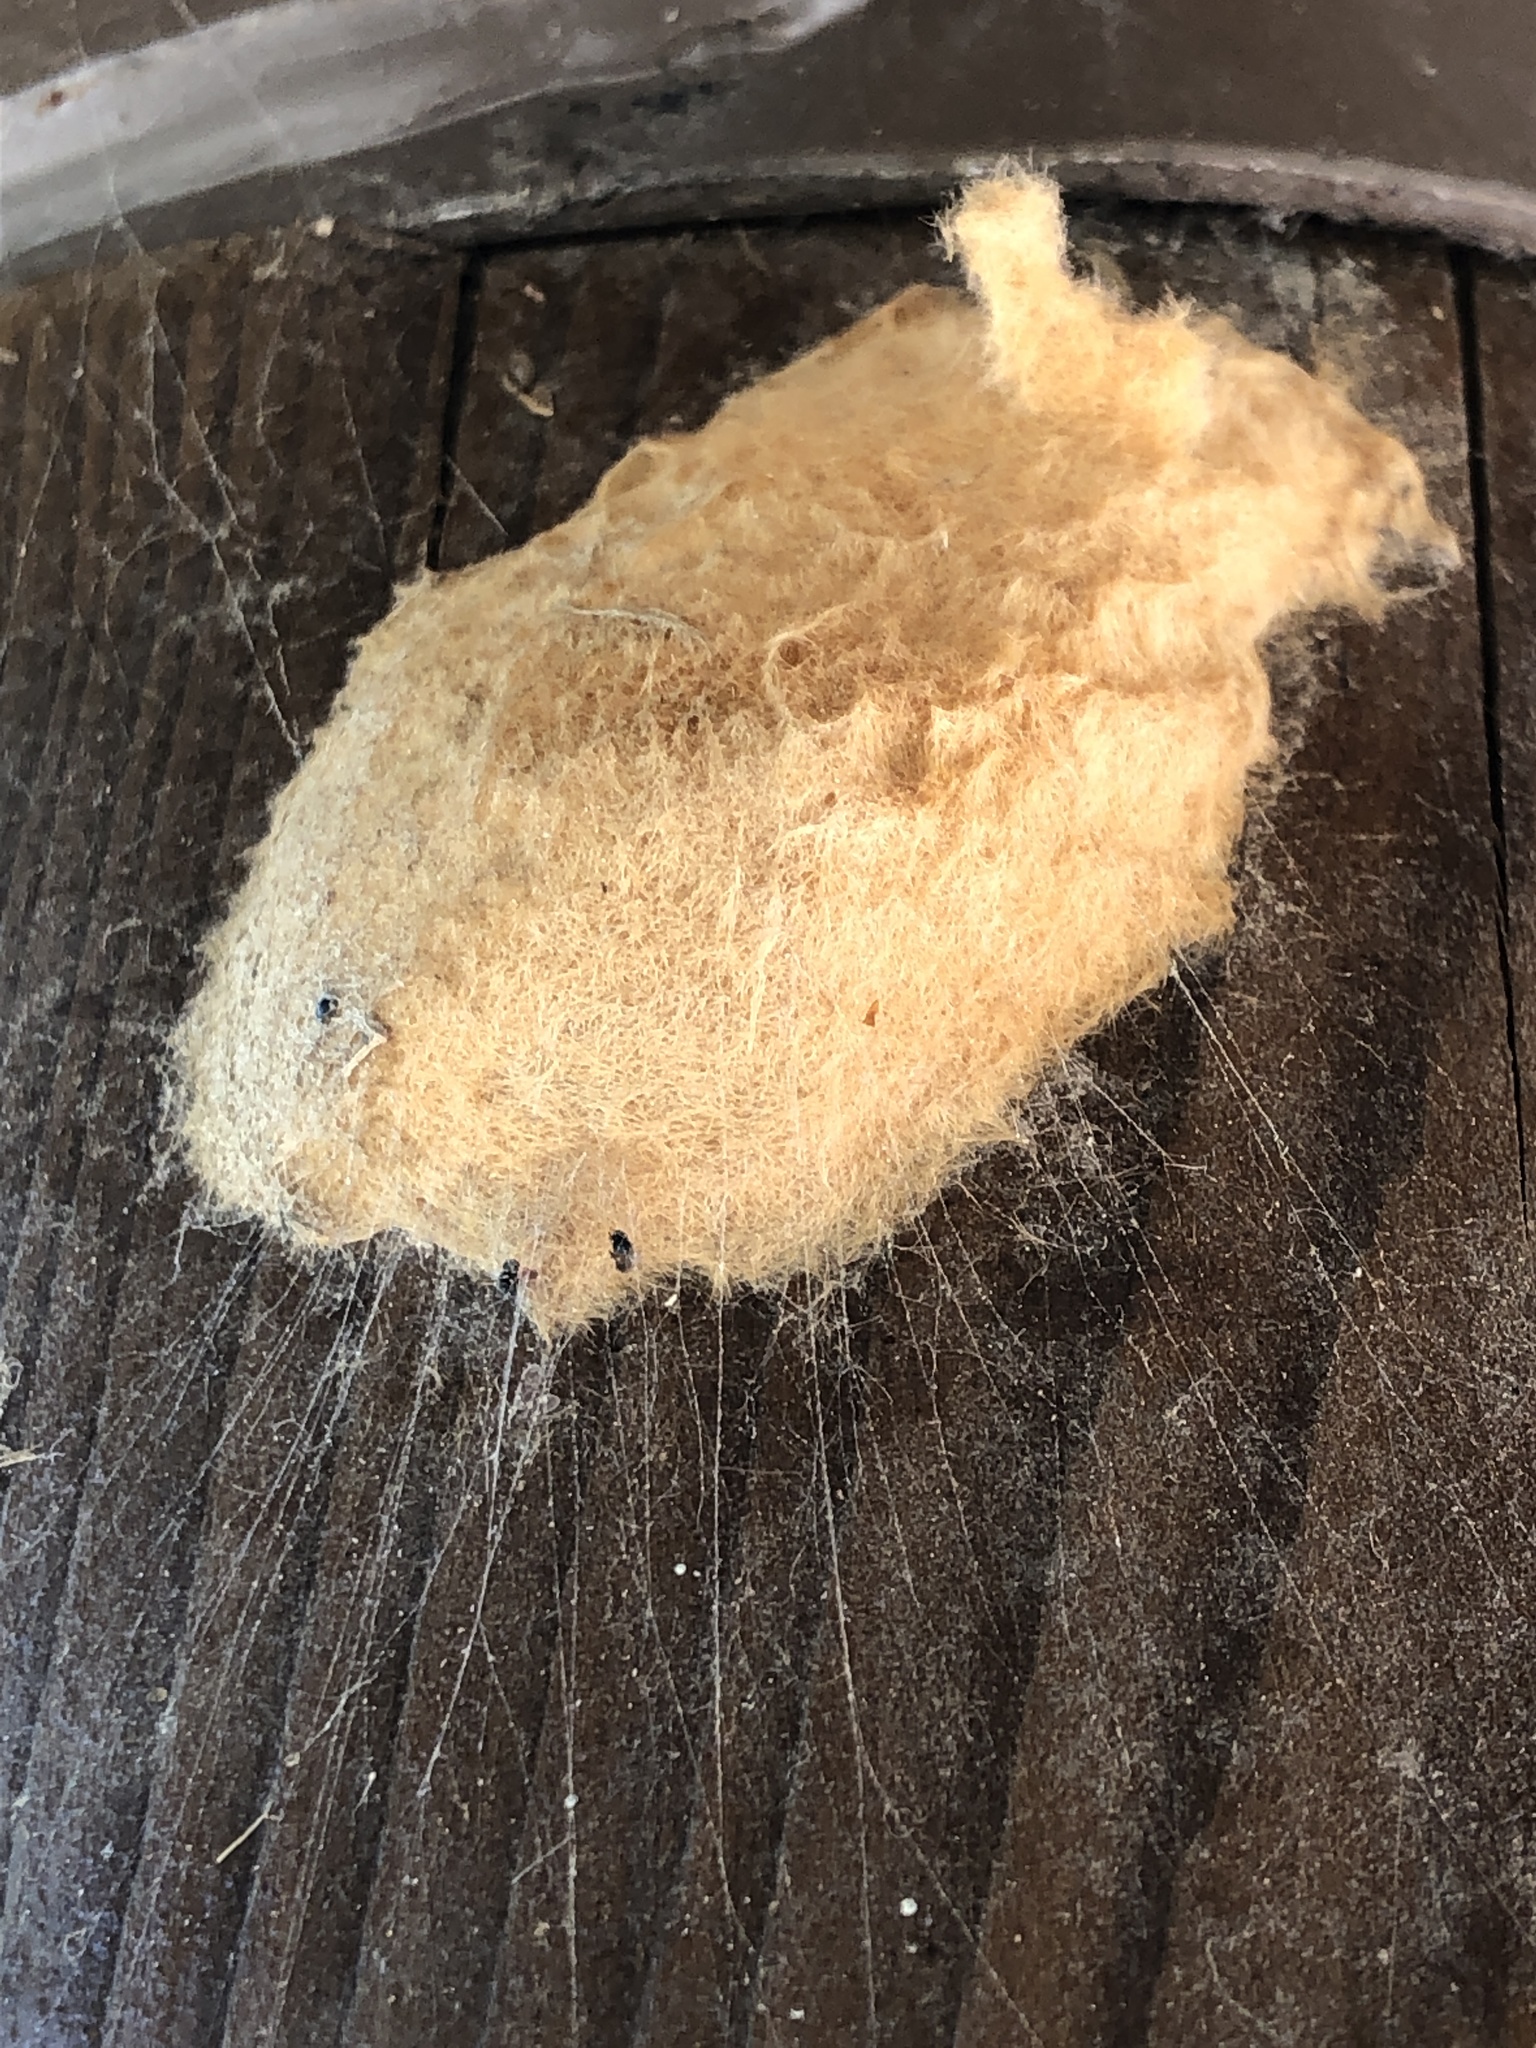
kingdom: Animalia
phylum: Arthropoda
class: Insecta
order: Lepidoptera
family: Erebidae
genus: Lymantria
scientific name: Lymantria dispar
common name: Gypsy moth
